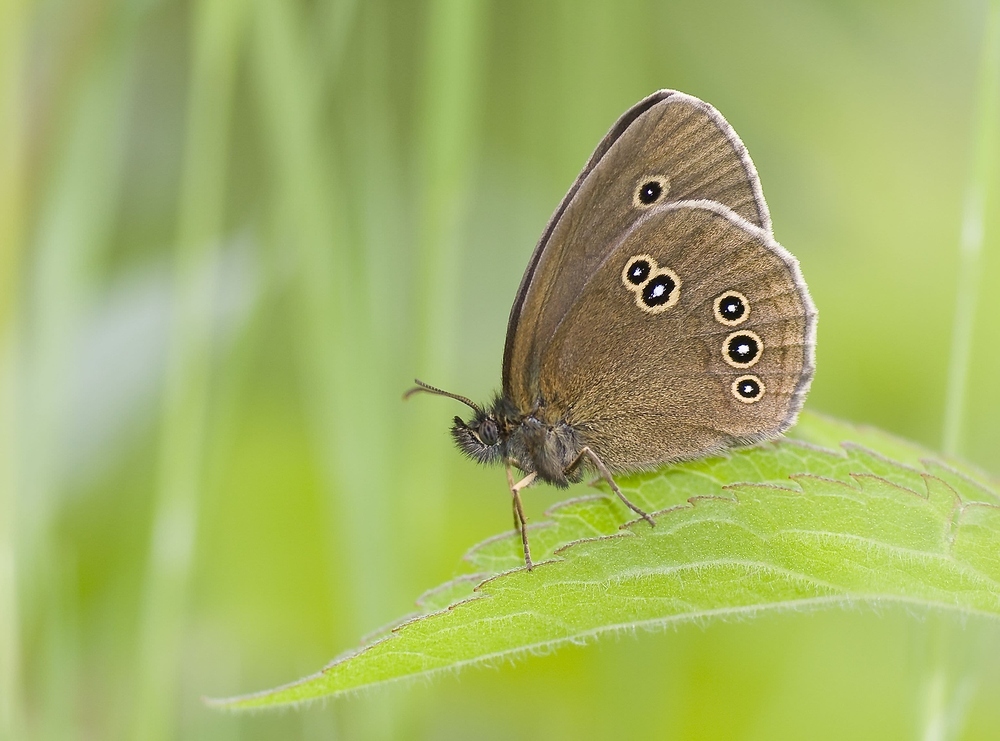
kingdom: Animalia
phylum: Arthropoda
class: Insecta
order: Lepidoptera
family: Nymphalidae
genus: Aphantopus
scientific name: Aphantopus hyperantus
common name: Ringlet
